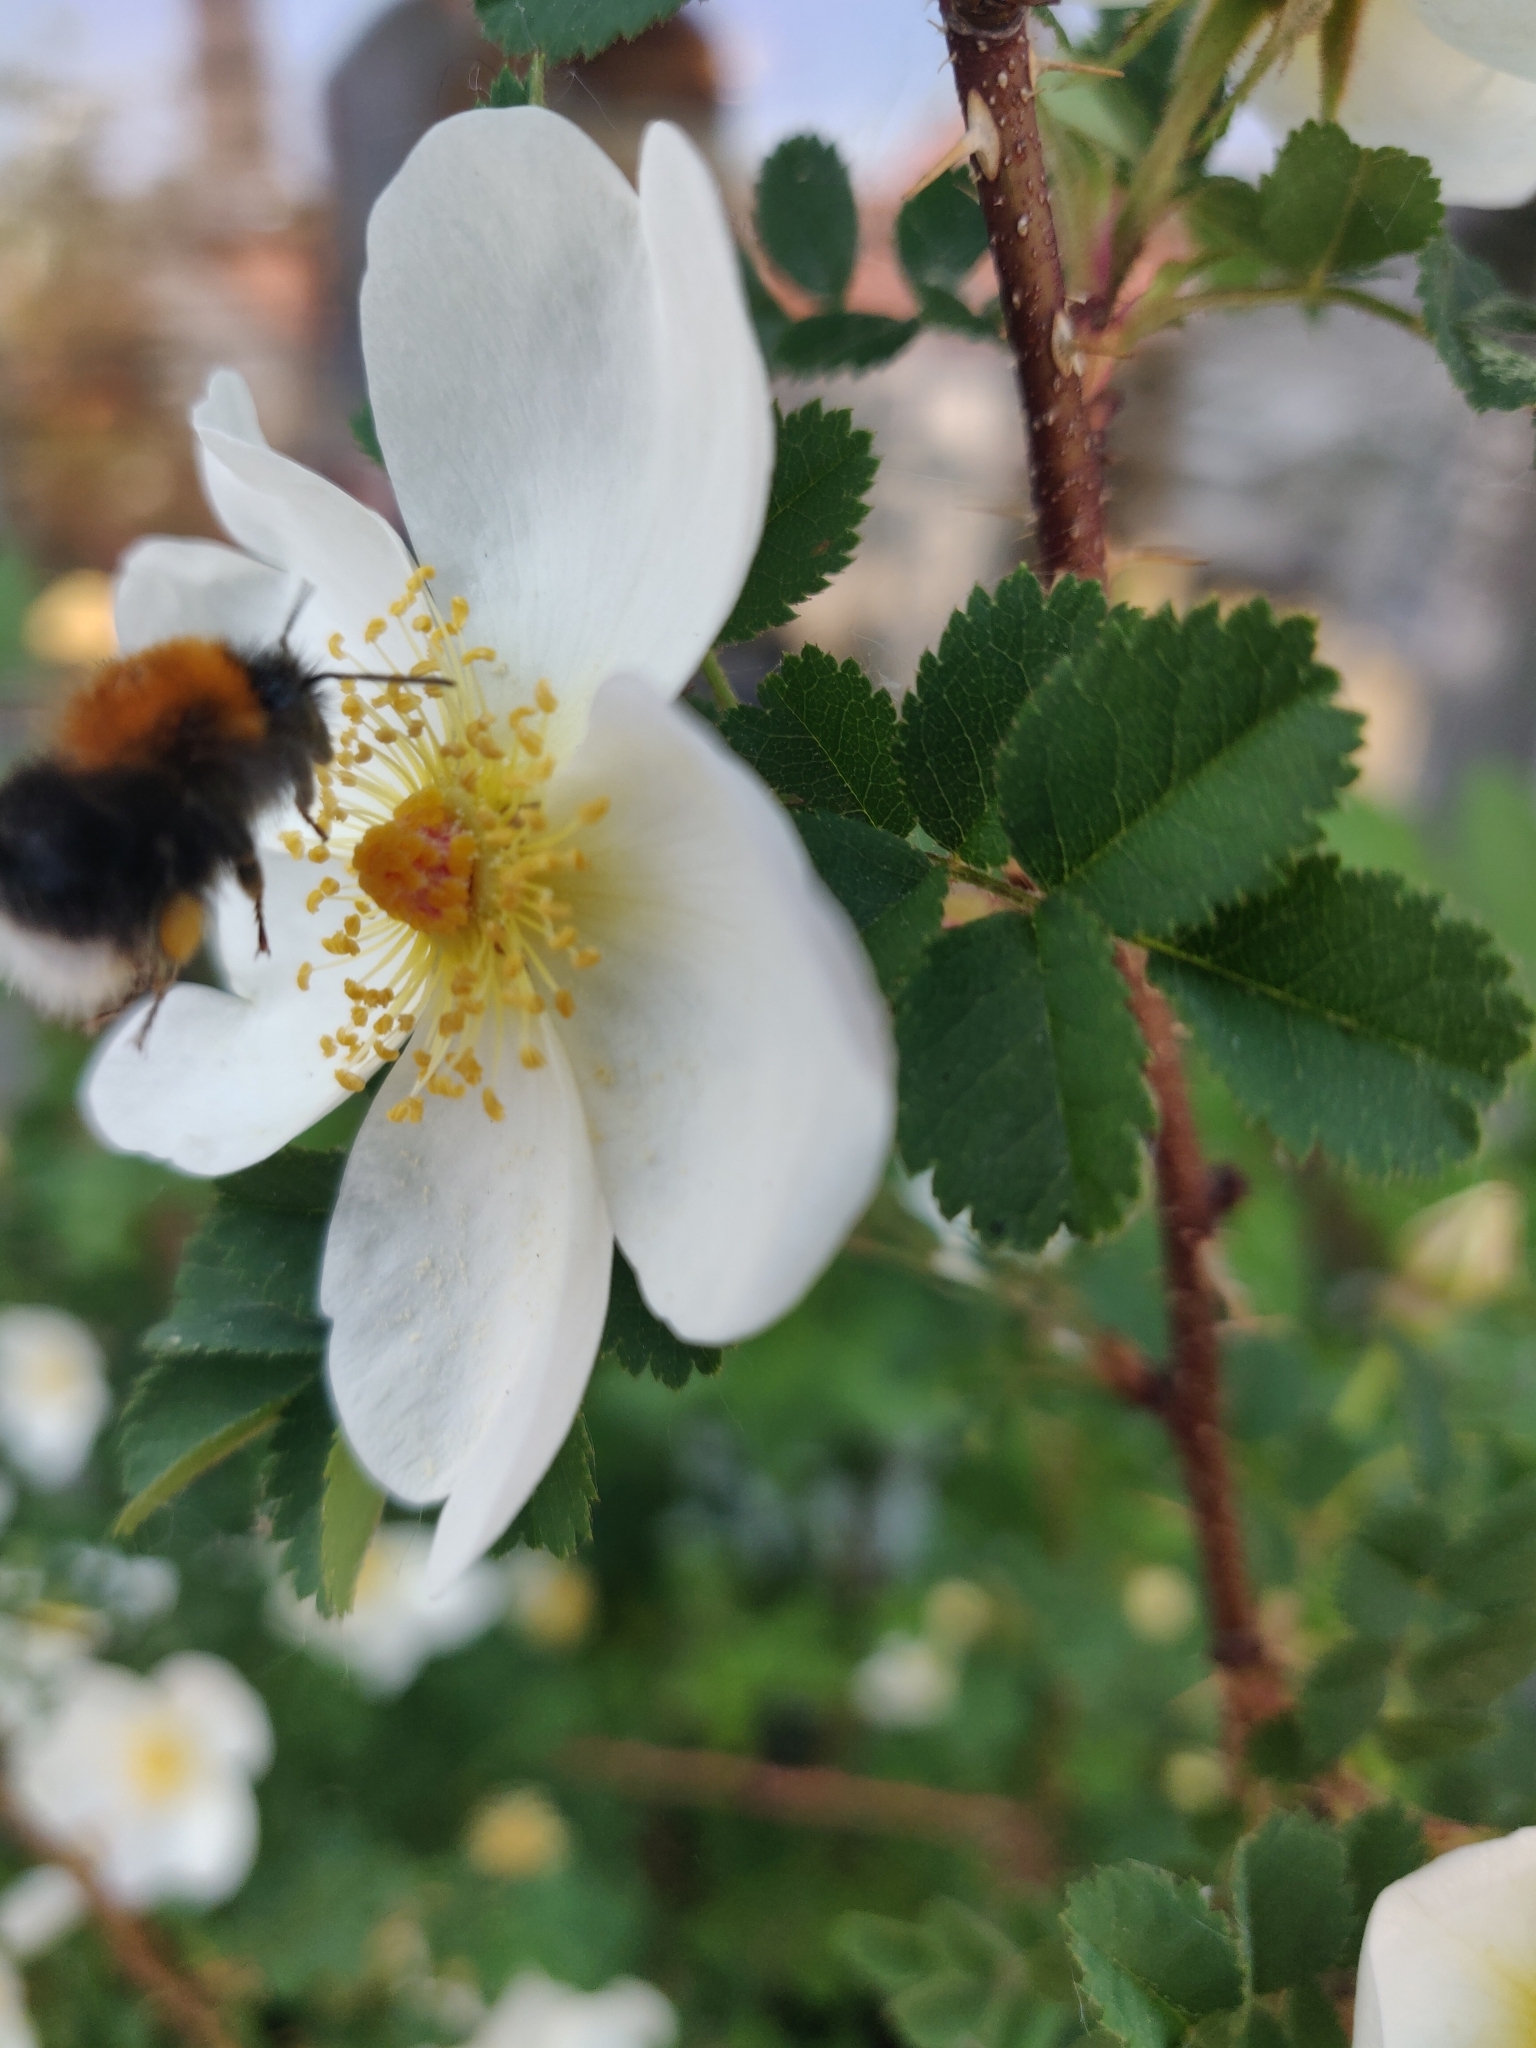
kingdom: Animalia
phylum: Arthropoda
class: Insecta
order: Hymenoptera
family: Apidae
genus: Bombus
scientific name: Bombus hypnorum
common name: New garden bumblebee
